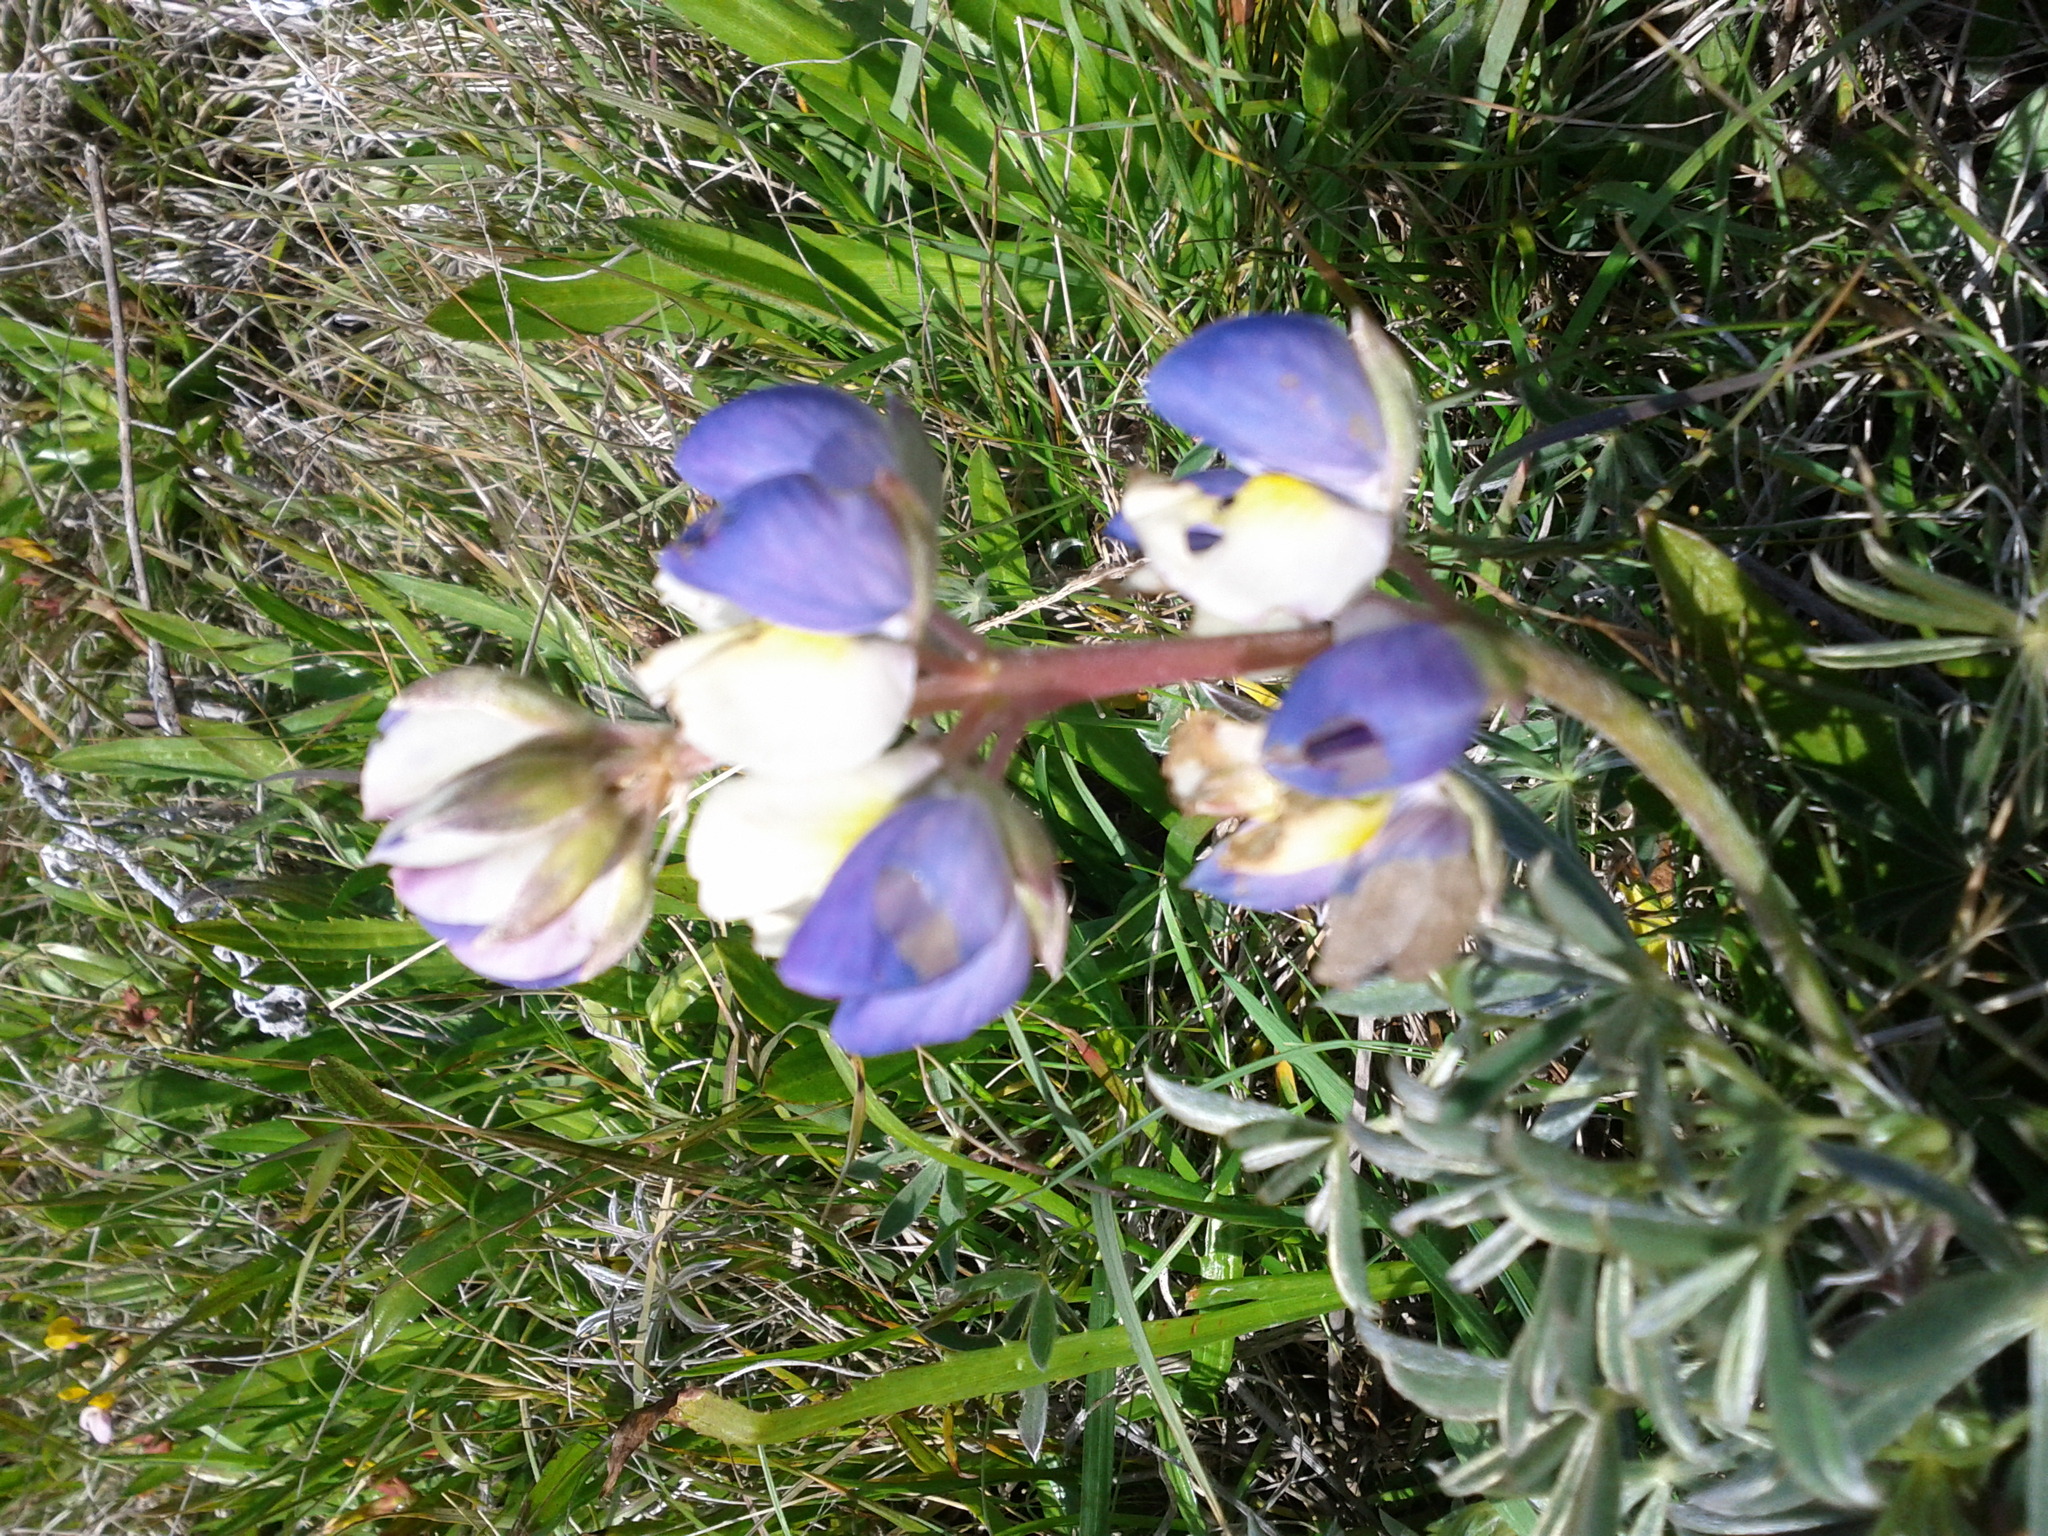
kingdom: Plantae
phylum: Tracheophyta
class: Magnoliopsida
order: Fabales
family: Fabaceae
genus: Lupinus
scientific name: Lupinus variicolor
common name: Lindley's varied lupine
